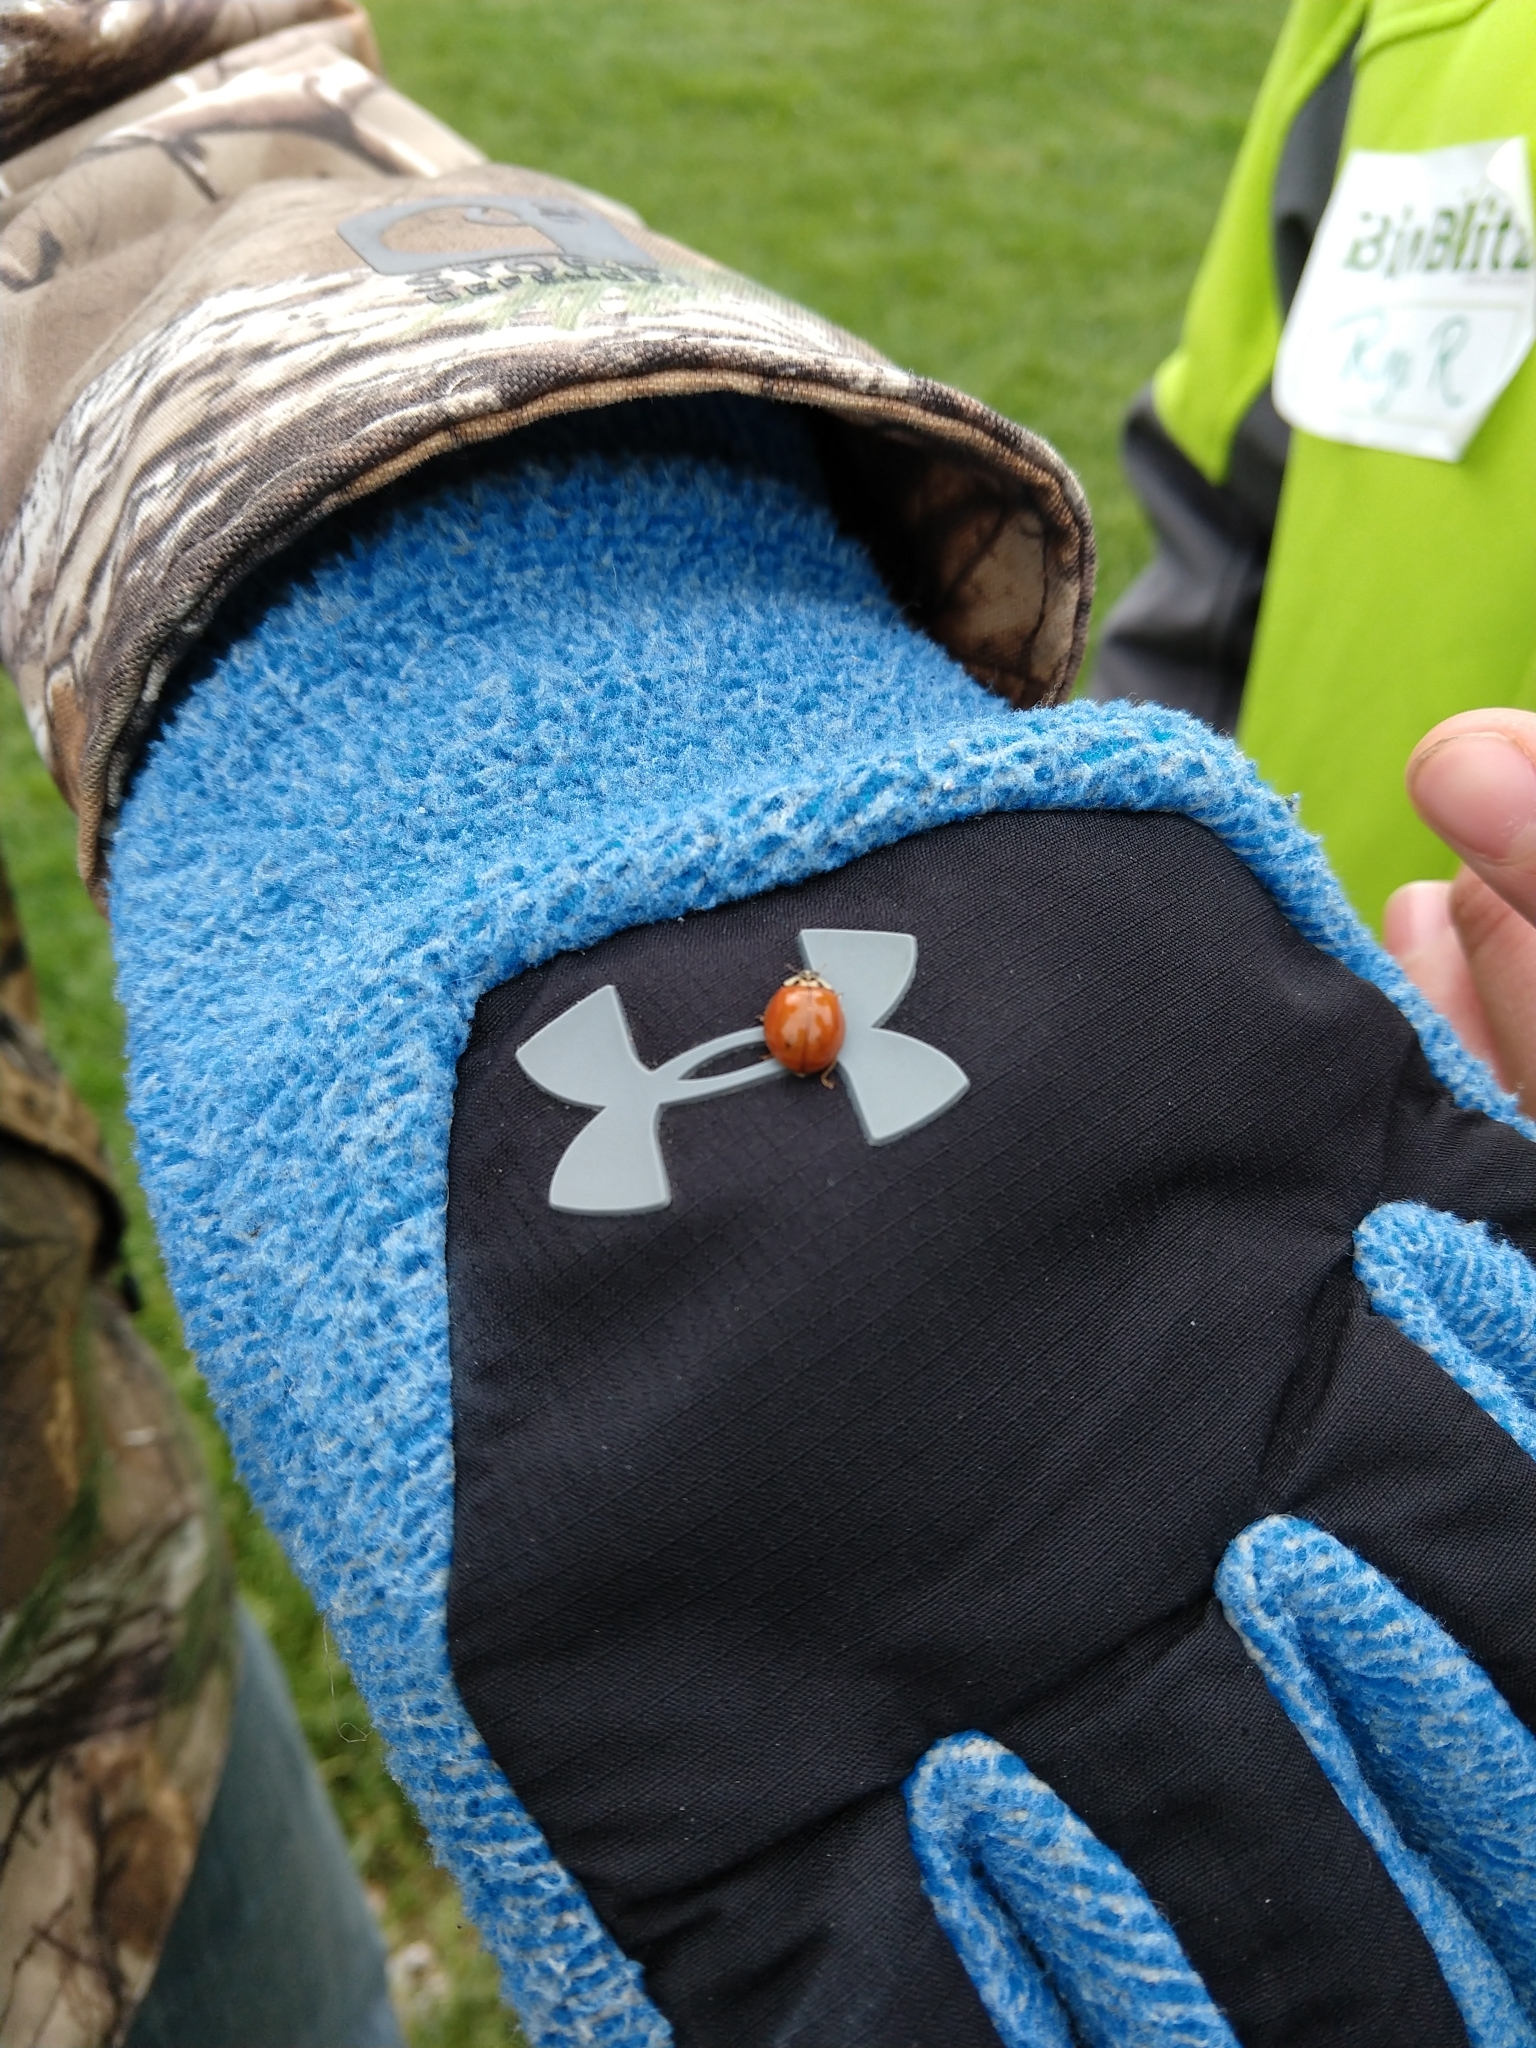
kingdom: Animalia
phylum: Arthropoda
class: Insecta
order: Coleoptera
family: Coccinellidae
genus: Harmonia
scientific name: Harmonia axyridis
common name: Harlequin ladybird
